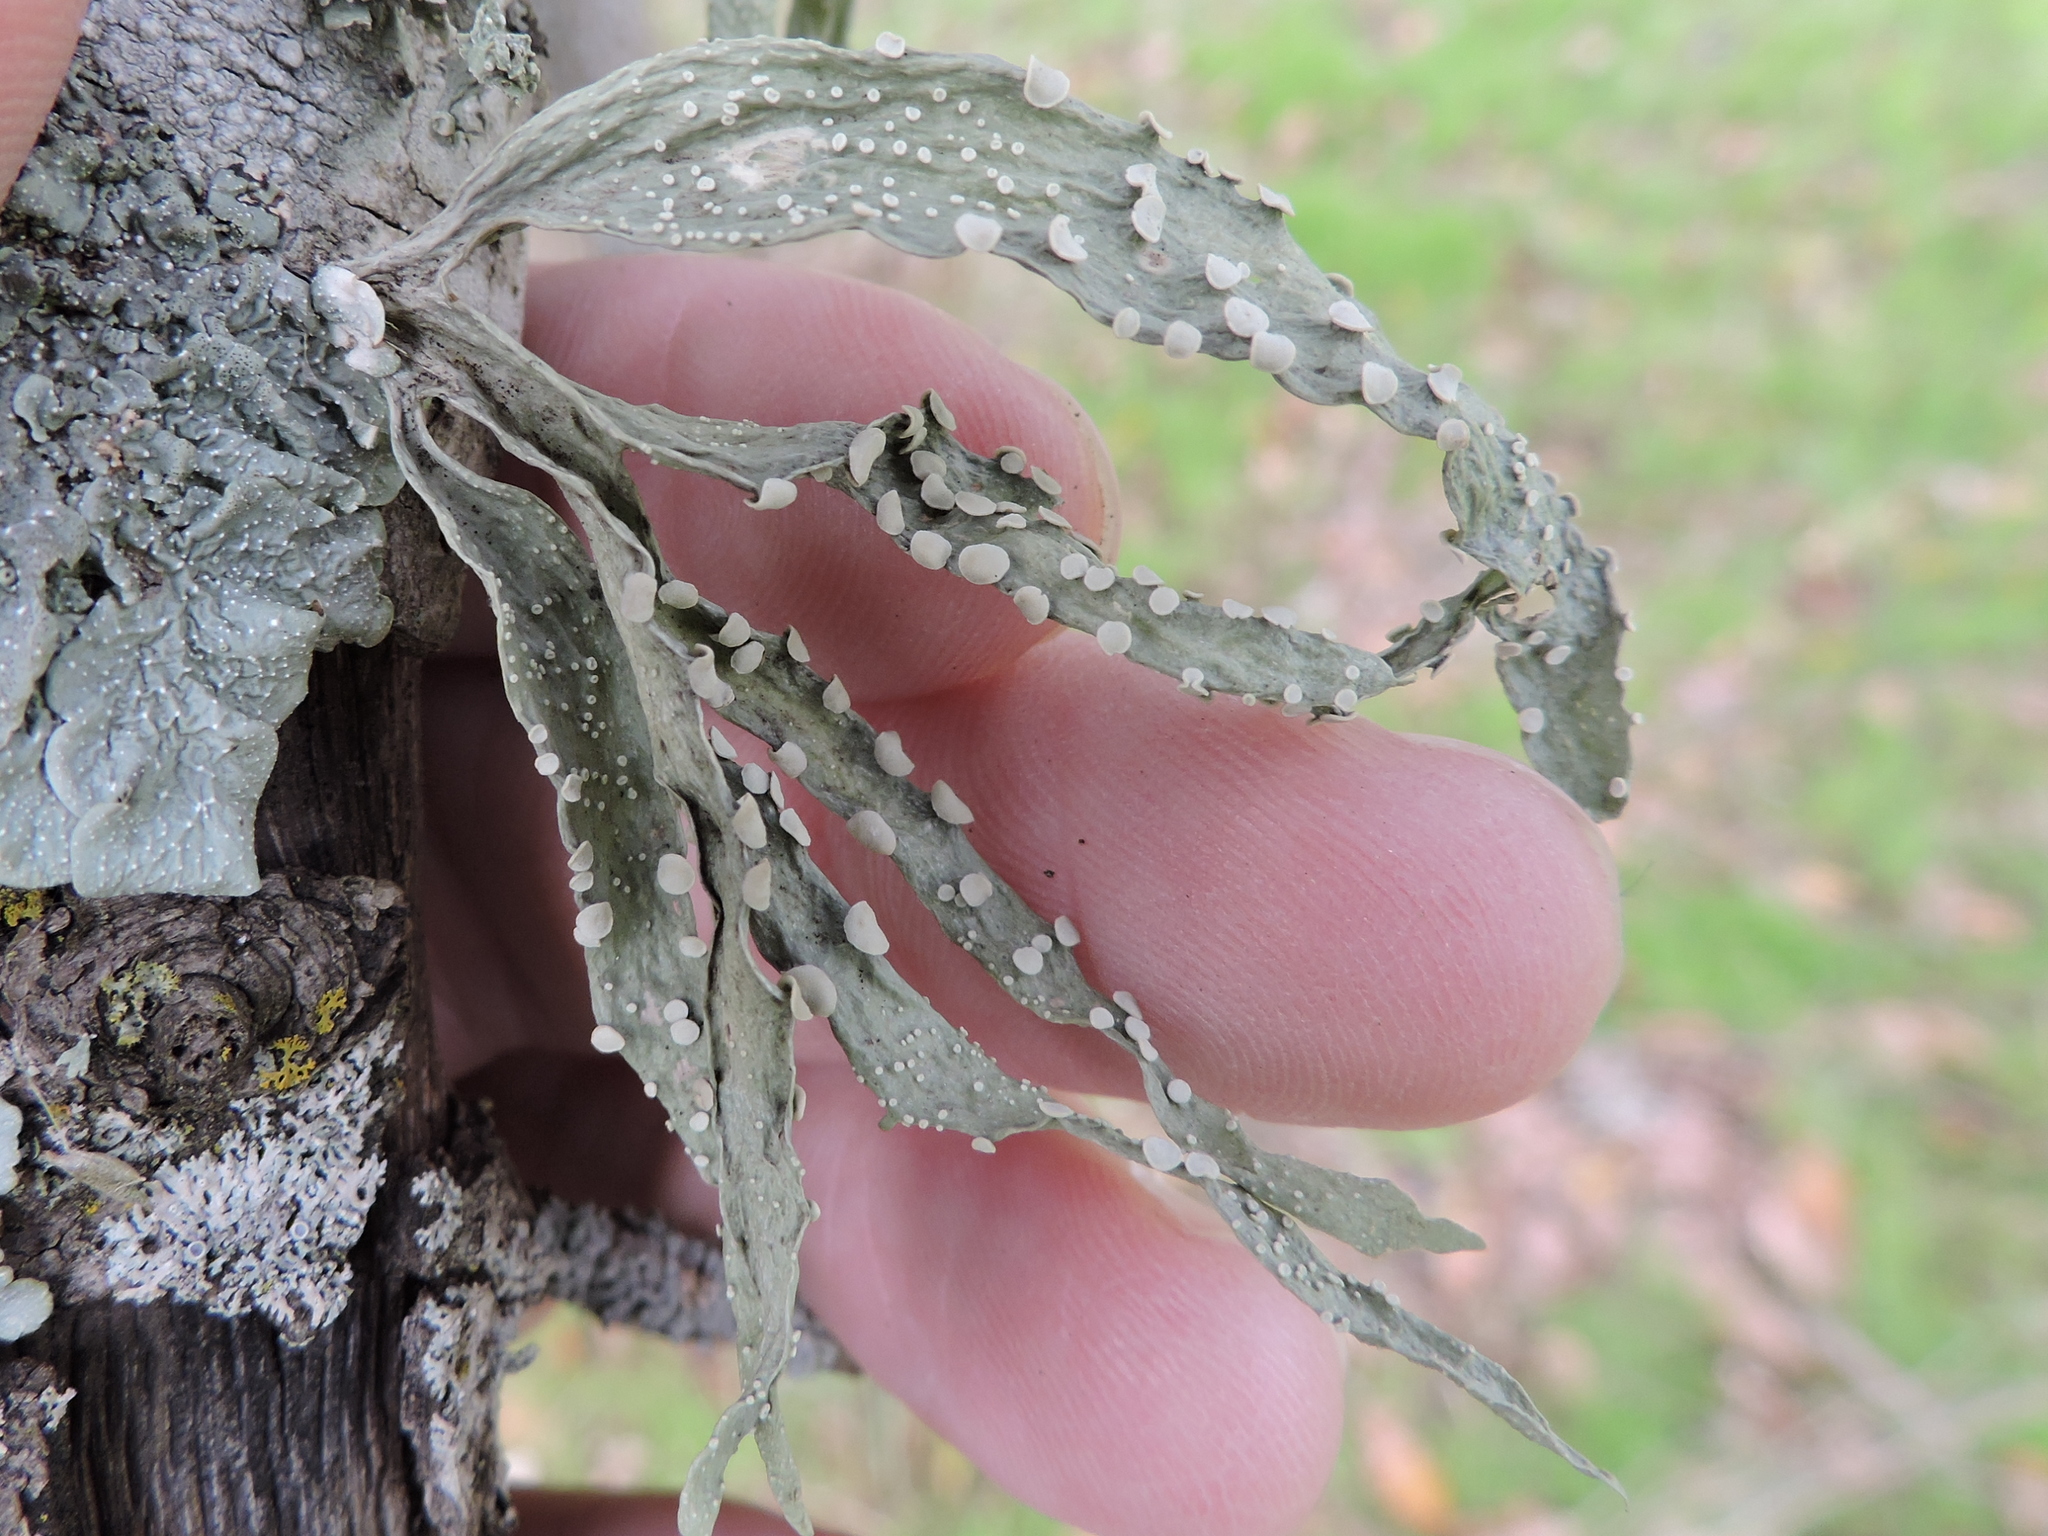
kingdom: Fungi
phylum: Ascomycota
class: Lecanoromycetes
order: Lecanorales
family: Ramalinaceae
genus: Ramalina
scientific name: Ramalina celastri
